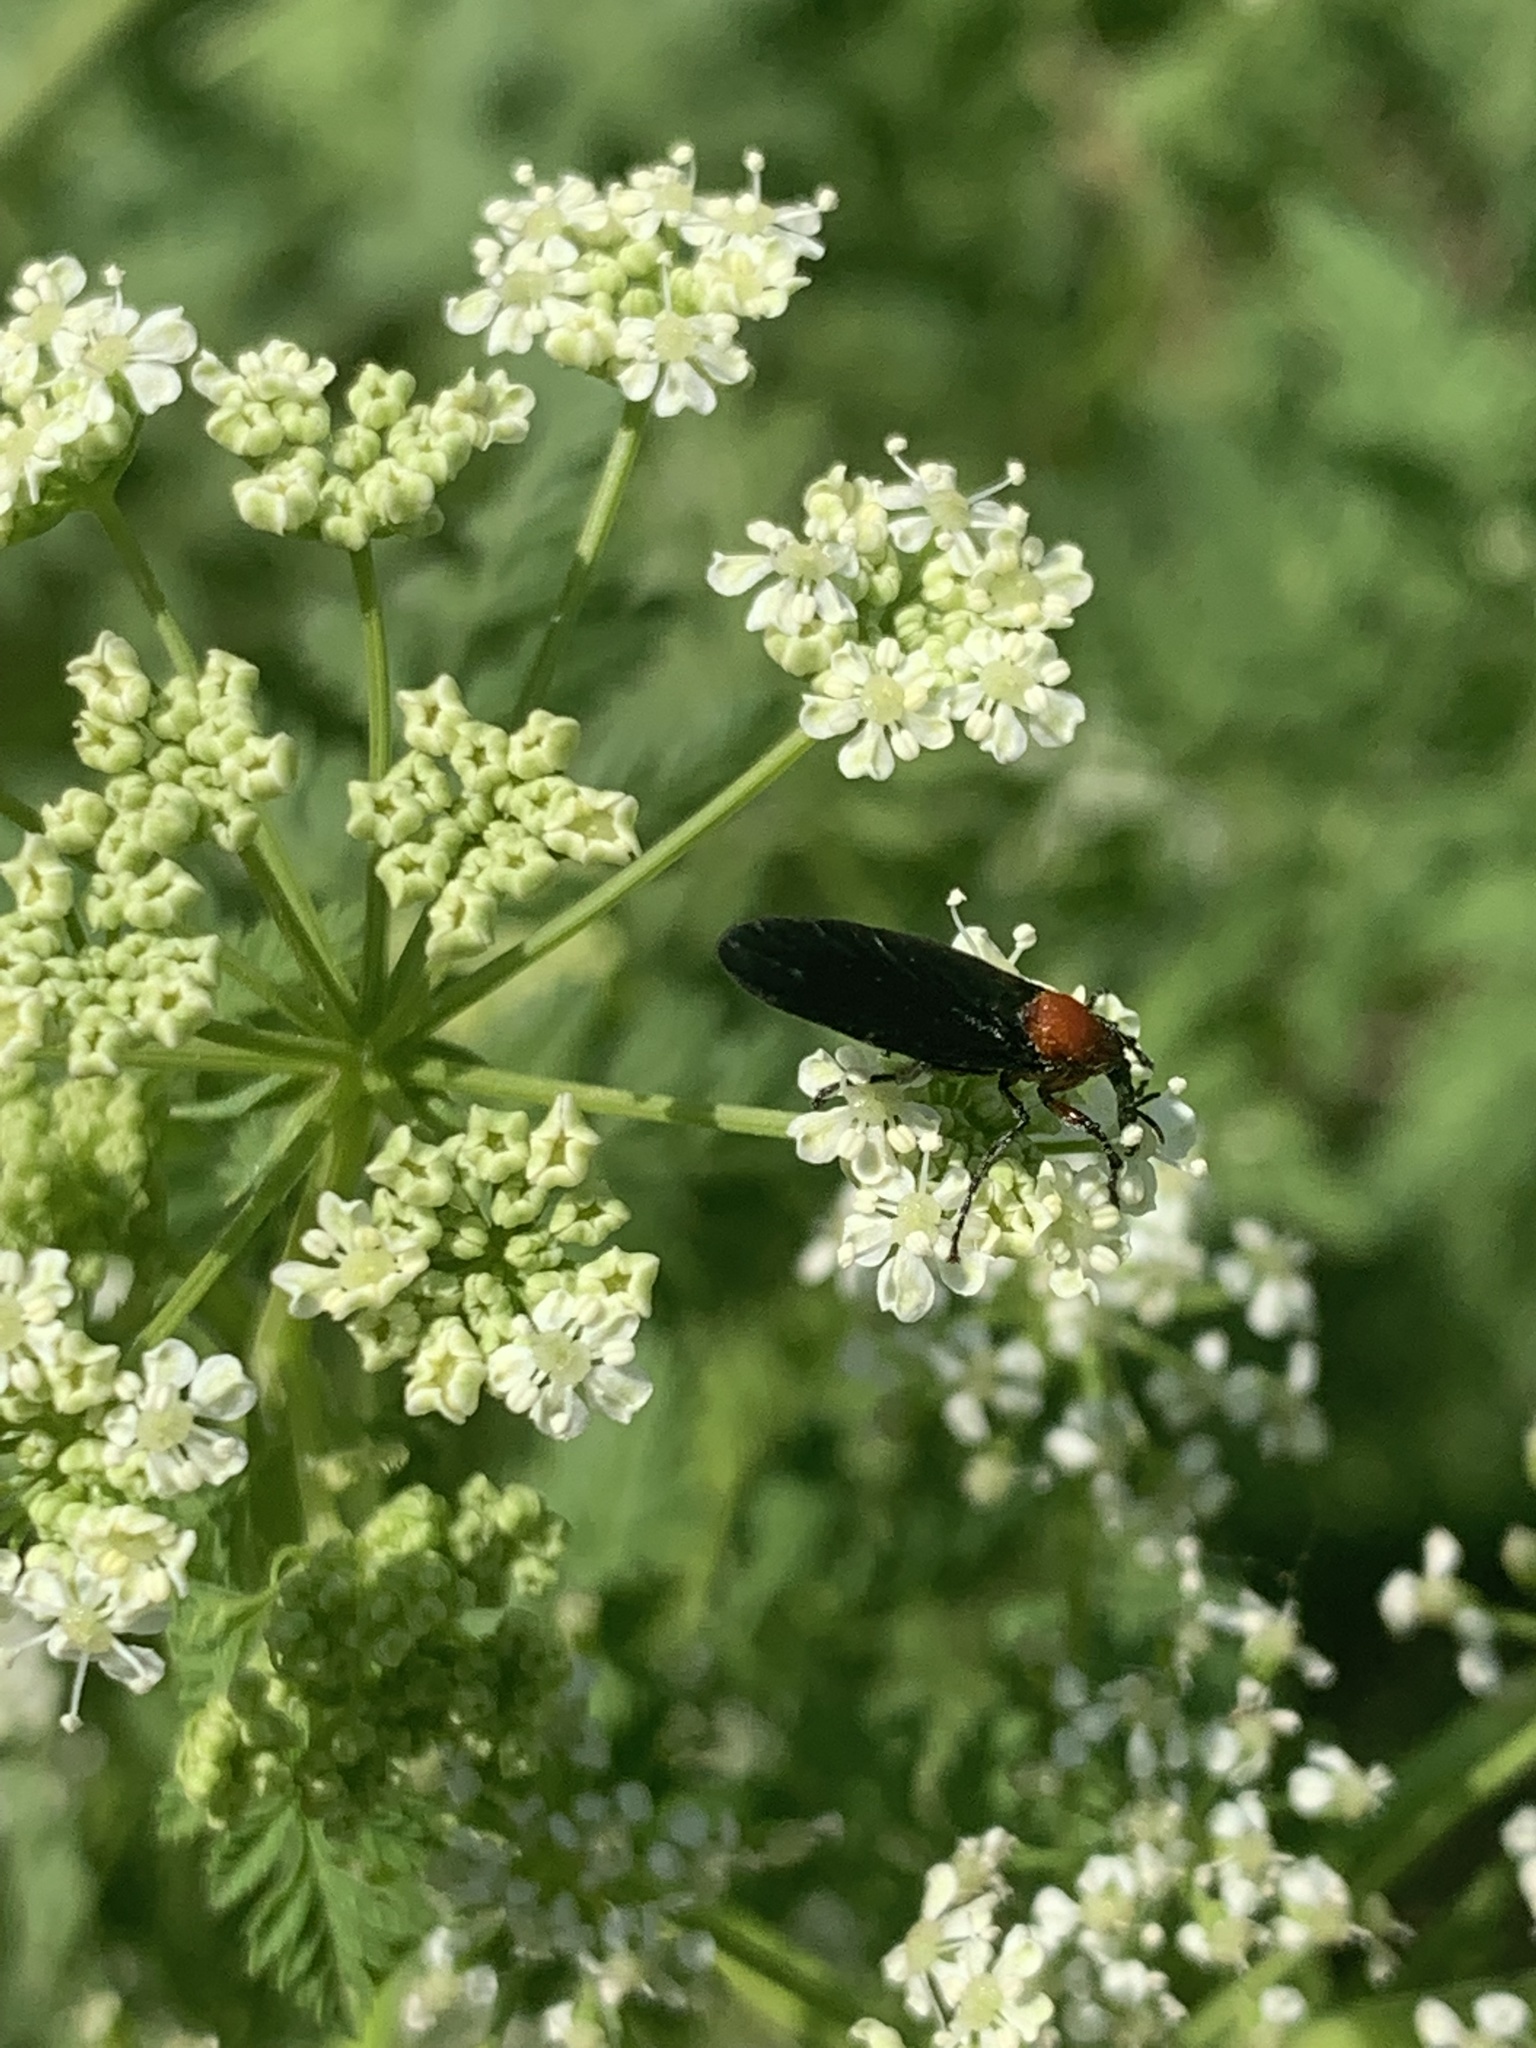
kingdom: Animalia
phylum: Arthropoda
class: Insecta
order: Diptera
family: Bibionidae
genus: Dilophus
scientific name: Dilophus pectoralis
